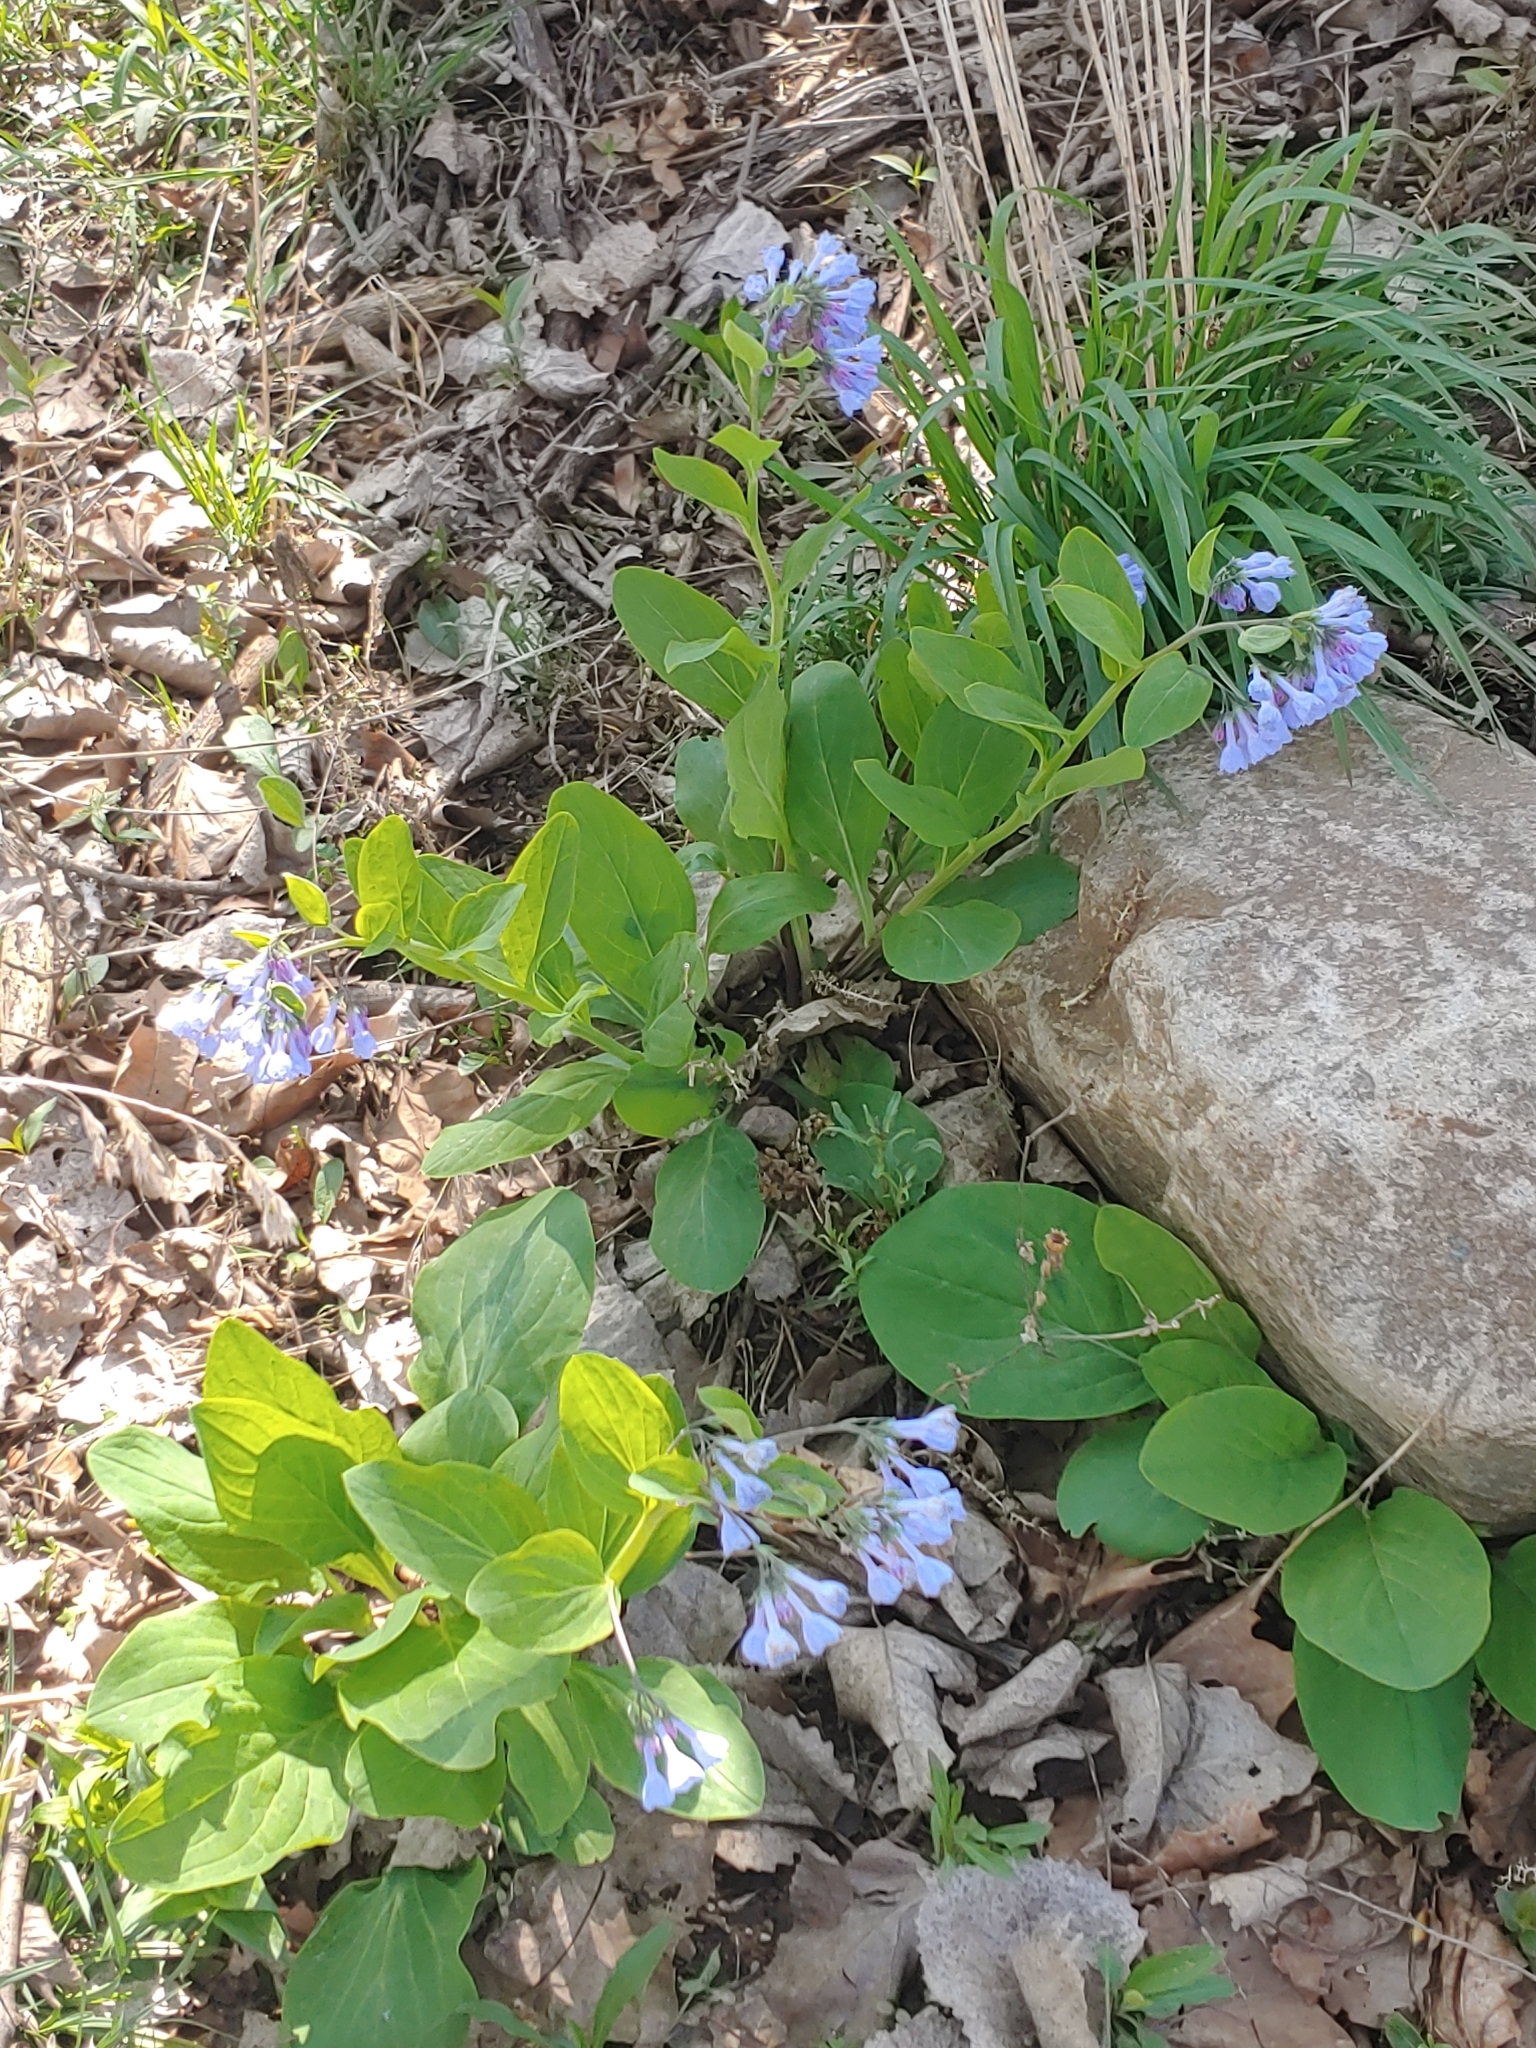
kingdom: Plantae
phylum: Tracheophyta
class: Magnoliopsida
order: Boraginales
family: Boraginaceae
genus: Mertensia
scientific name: Mertensia virginica
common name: Virginia bluebells
